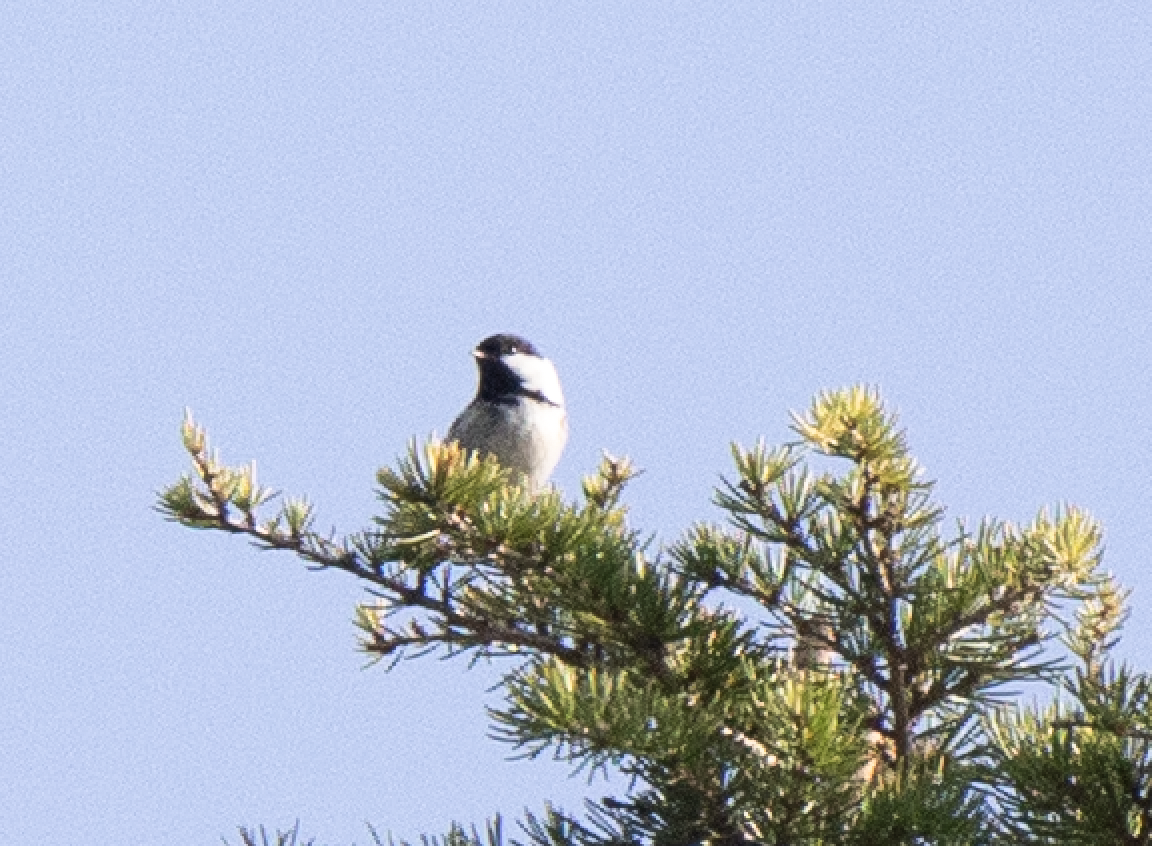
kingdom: Animalia
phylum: Chordata
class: Aves
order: Passeriformes
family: Paridae
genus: Periparus
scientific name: Periparus ater
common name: Coal tit
